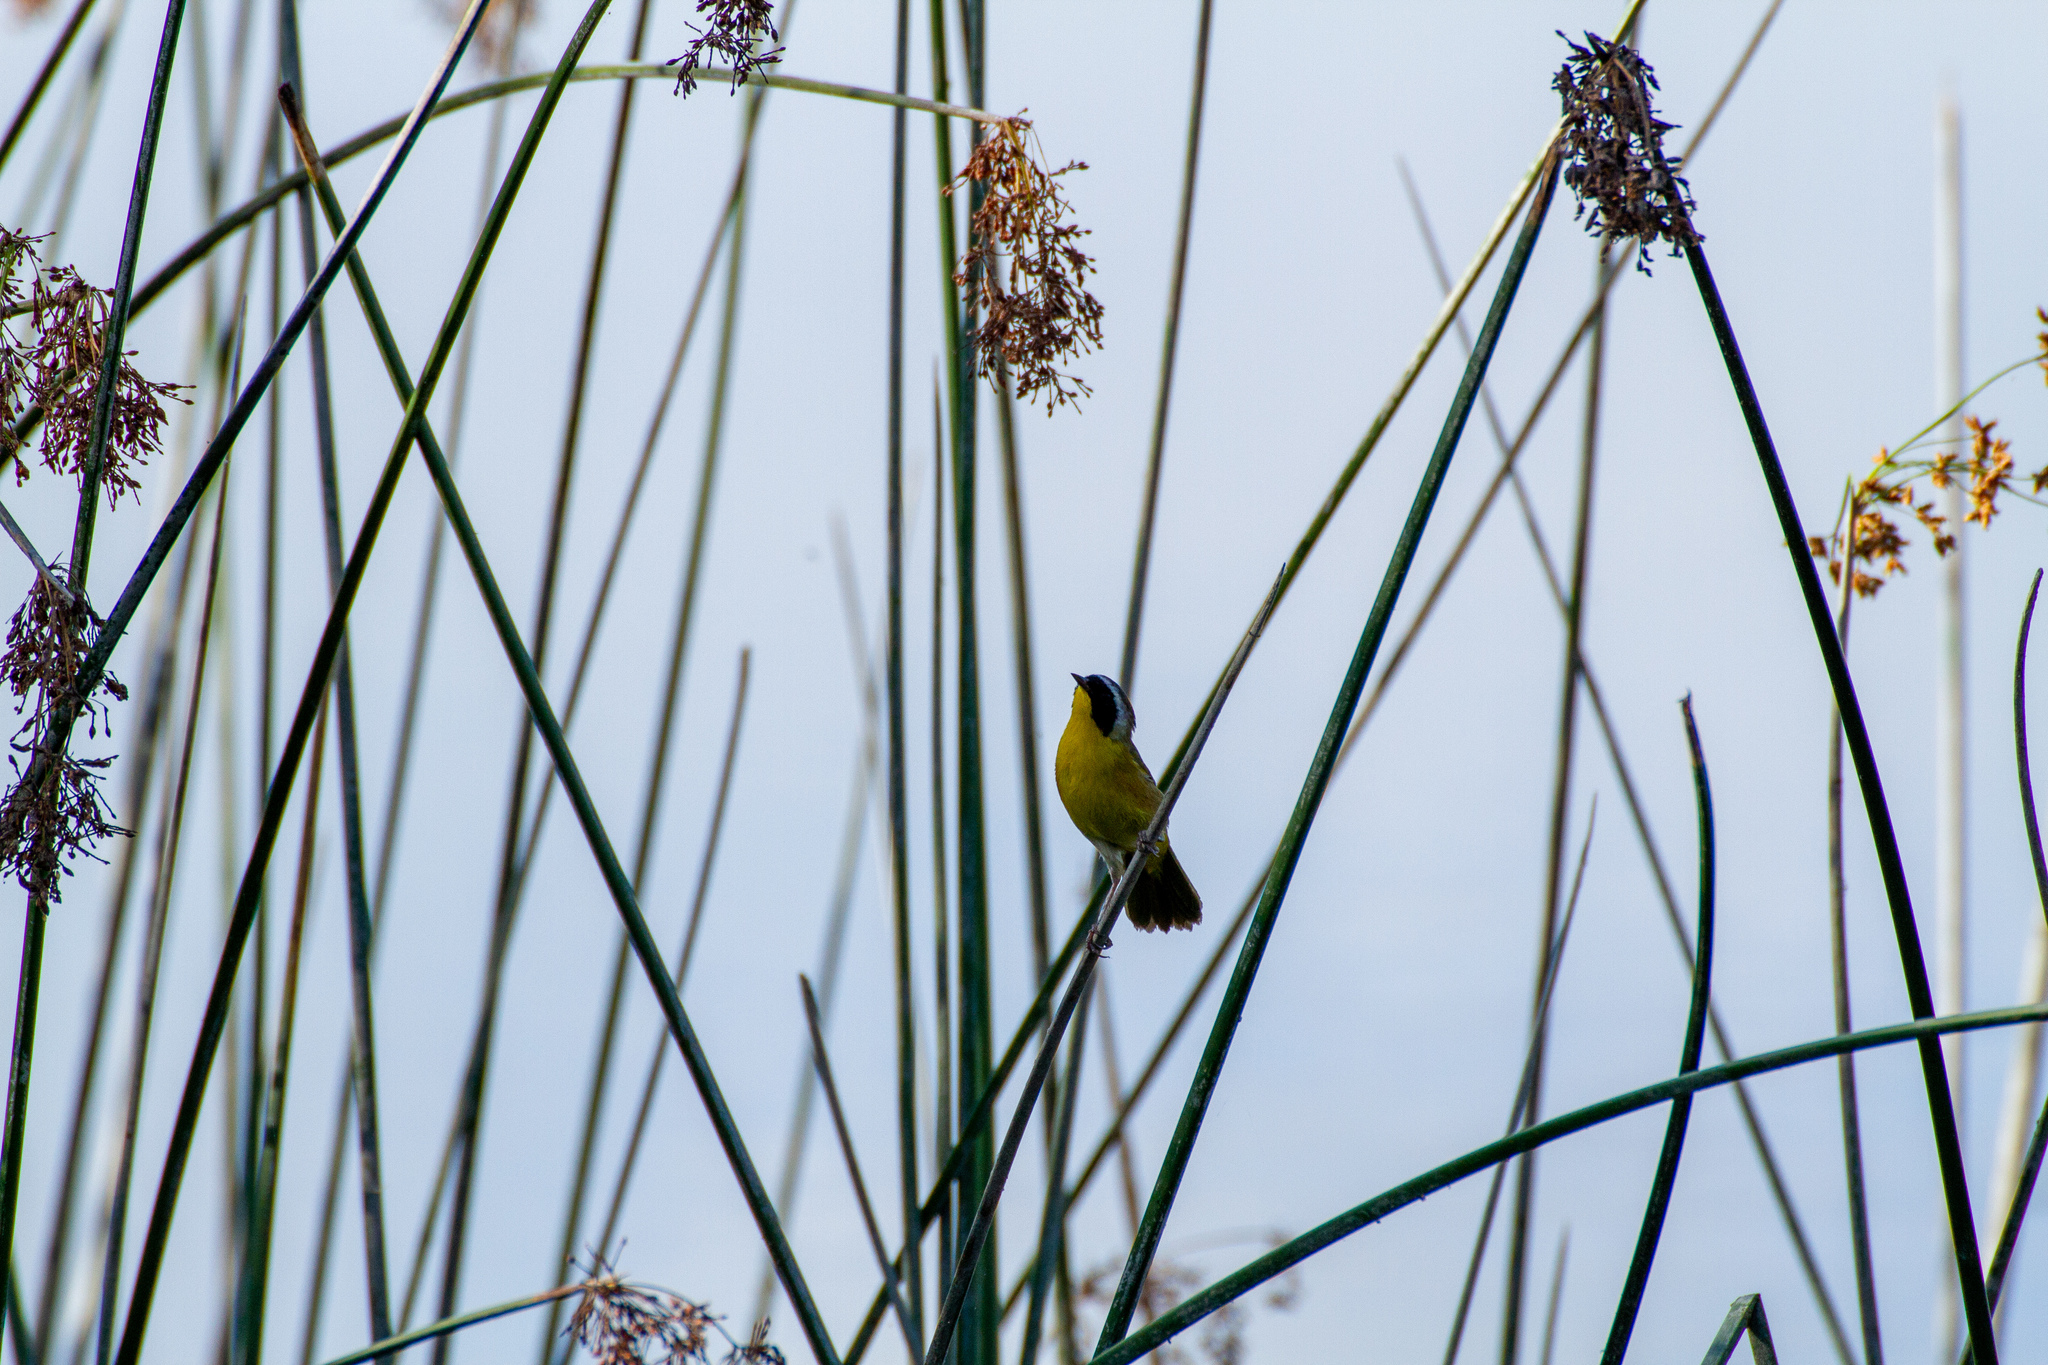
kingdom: Animalia
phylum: Chordata
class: Aves
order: Passeriformes
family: Parulidae
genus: Geothlypis
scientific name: Geothlypis trichas
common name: Common yellowthroat
